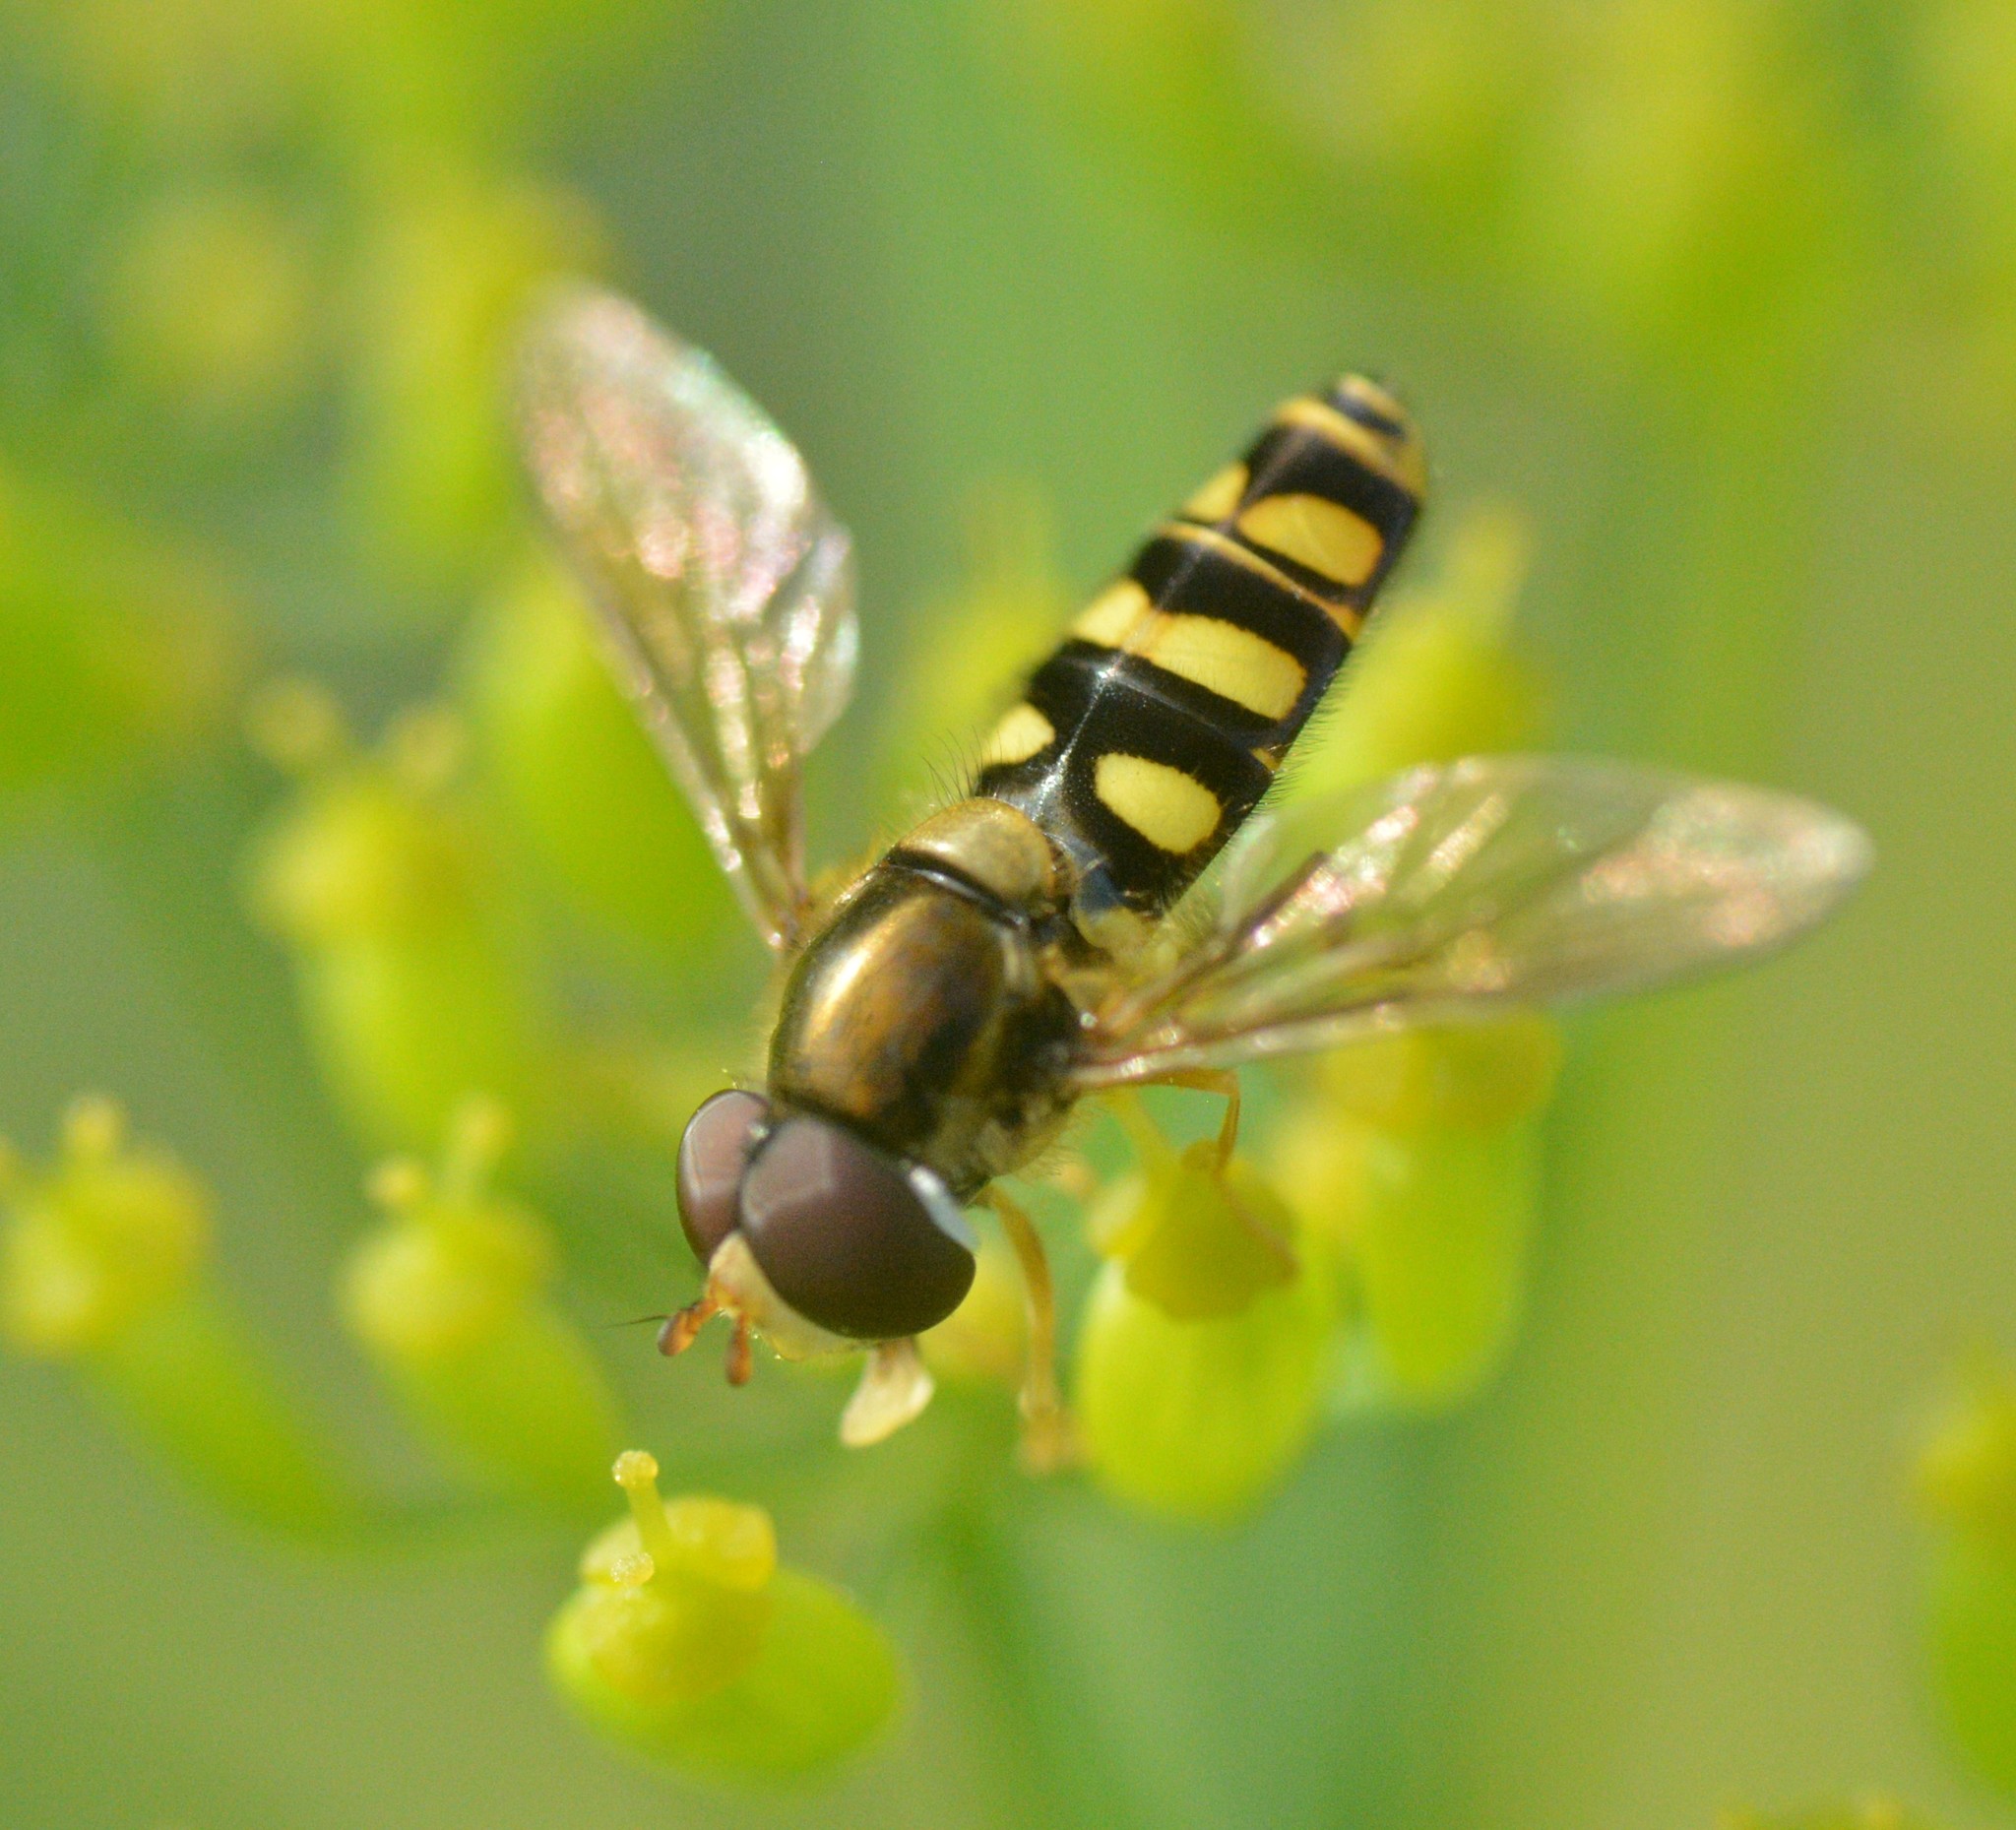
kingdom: Animalia
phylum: Arthropoda
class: Insecta
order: Diptera
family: Syrphidae
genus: Epistrophella
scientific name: Epistrophella emarginata
